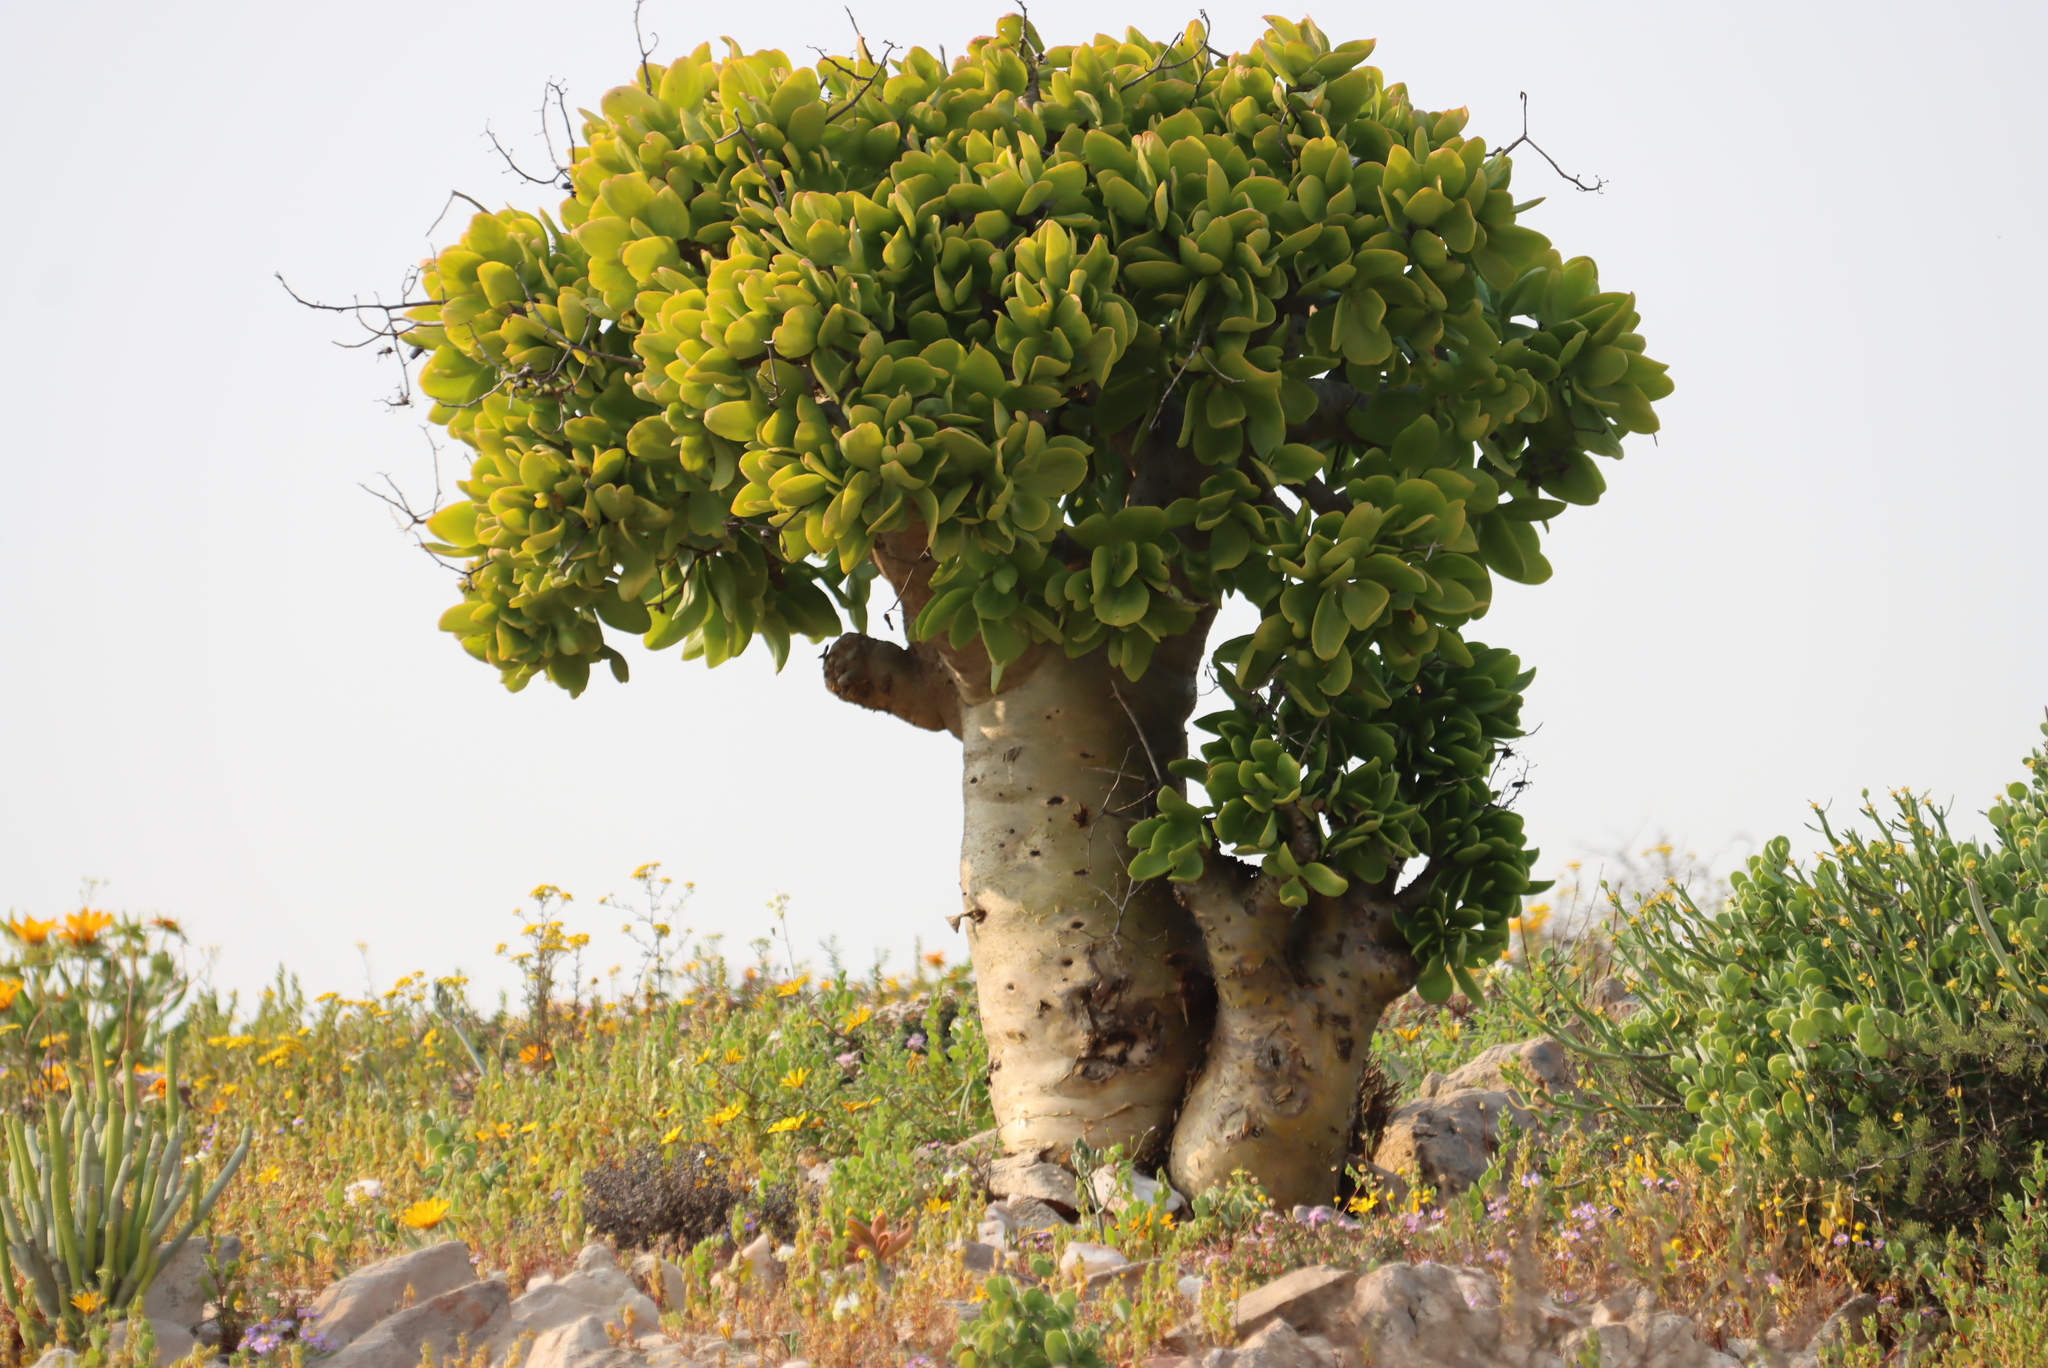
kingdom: Plantae
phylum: Tracheophyta
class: Magnoliopsida
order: Saxifragales
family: Crassulaceae
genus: Tylecodon
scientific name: Tylecodon paniculatus
